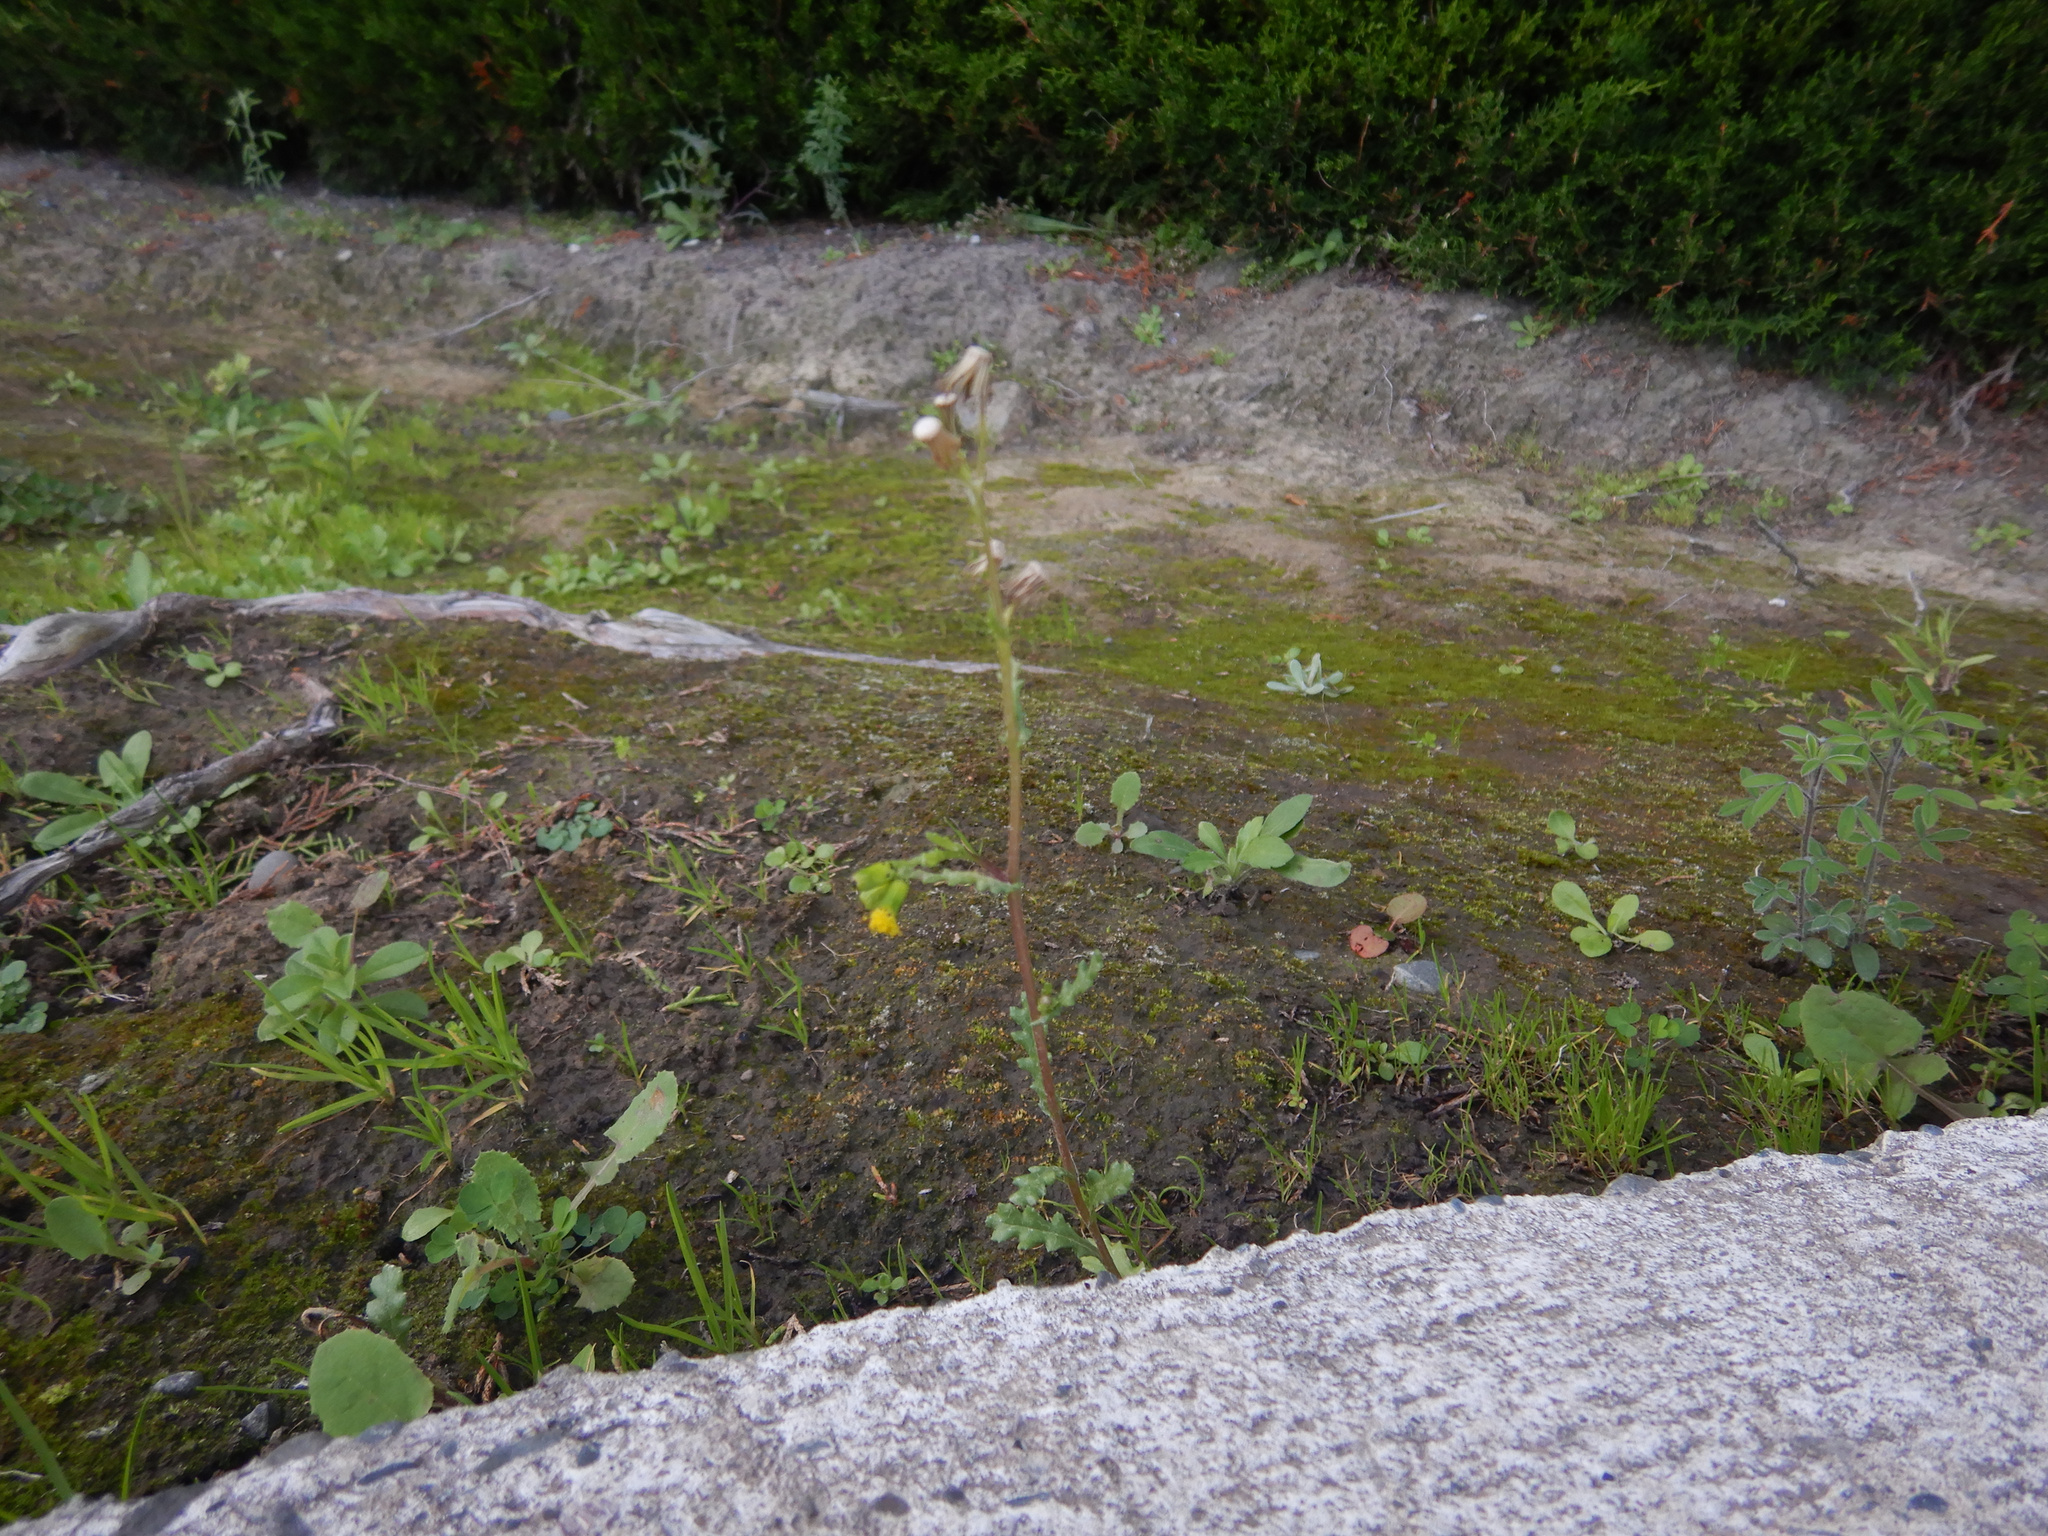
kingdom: Plantae
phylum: Tracheophyta
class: Magnoliopsida
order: Asterales
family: Asteraceae
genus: Senecio
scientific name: Senecio vulgaris
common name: Old-man-in-the-spring
